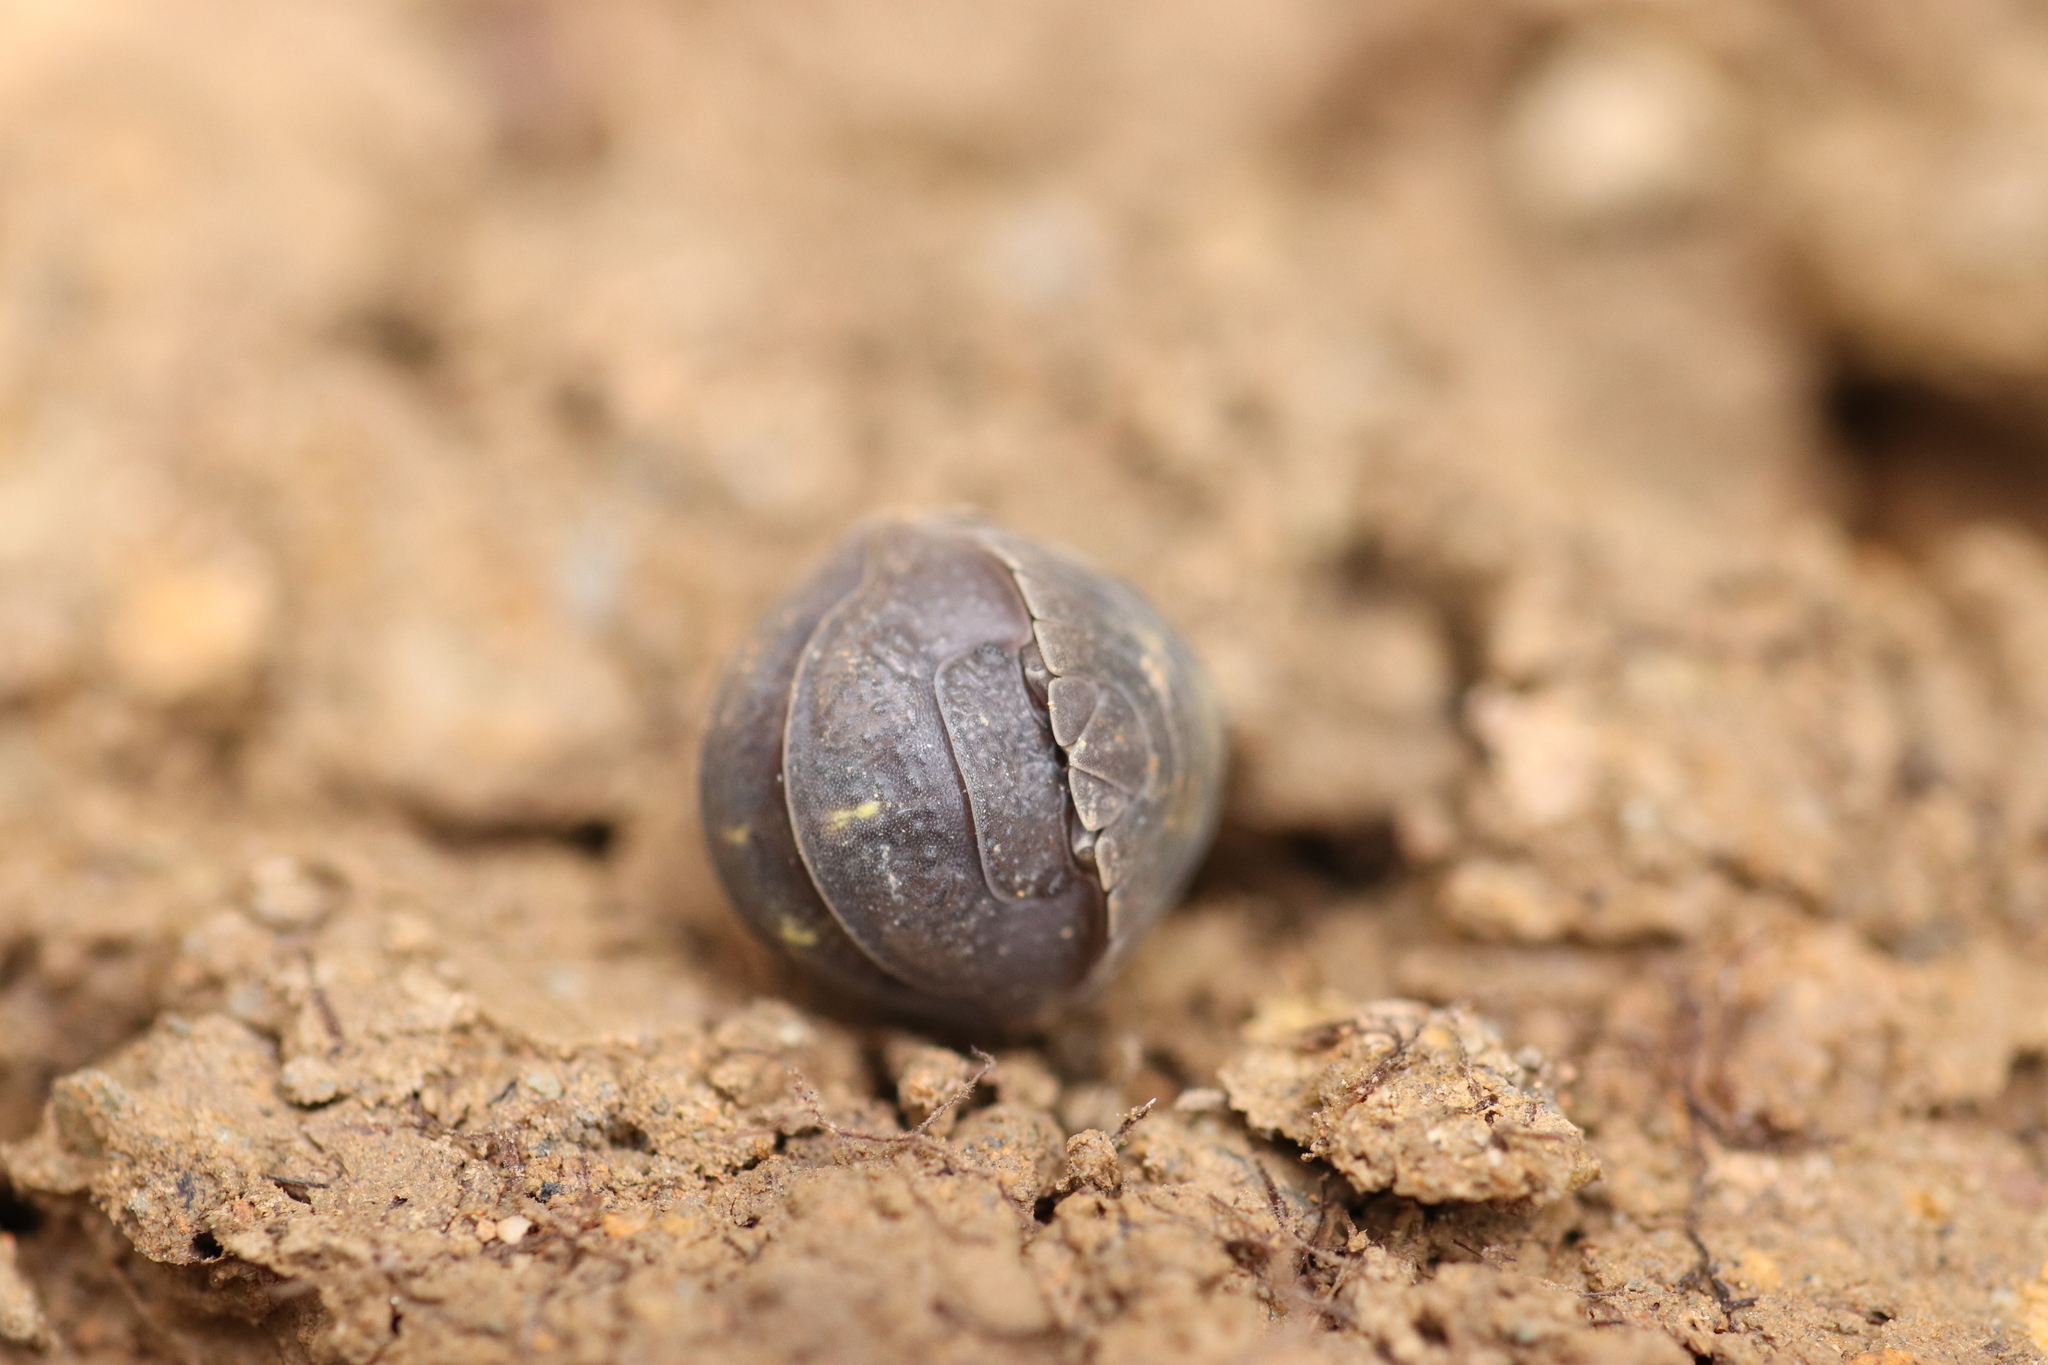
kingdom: Animalia
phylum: Arthropoda
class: Malacostraca
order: Isopoda
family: Armadillidiidae
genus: Armadillidium
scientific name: Armadillidium granulatum
